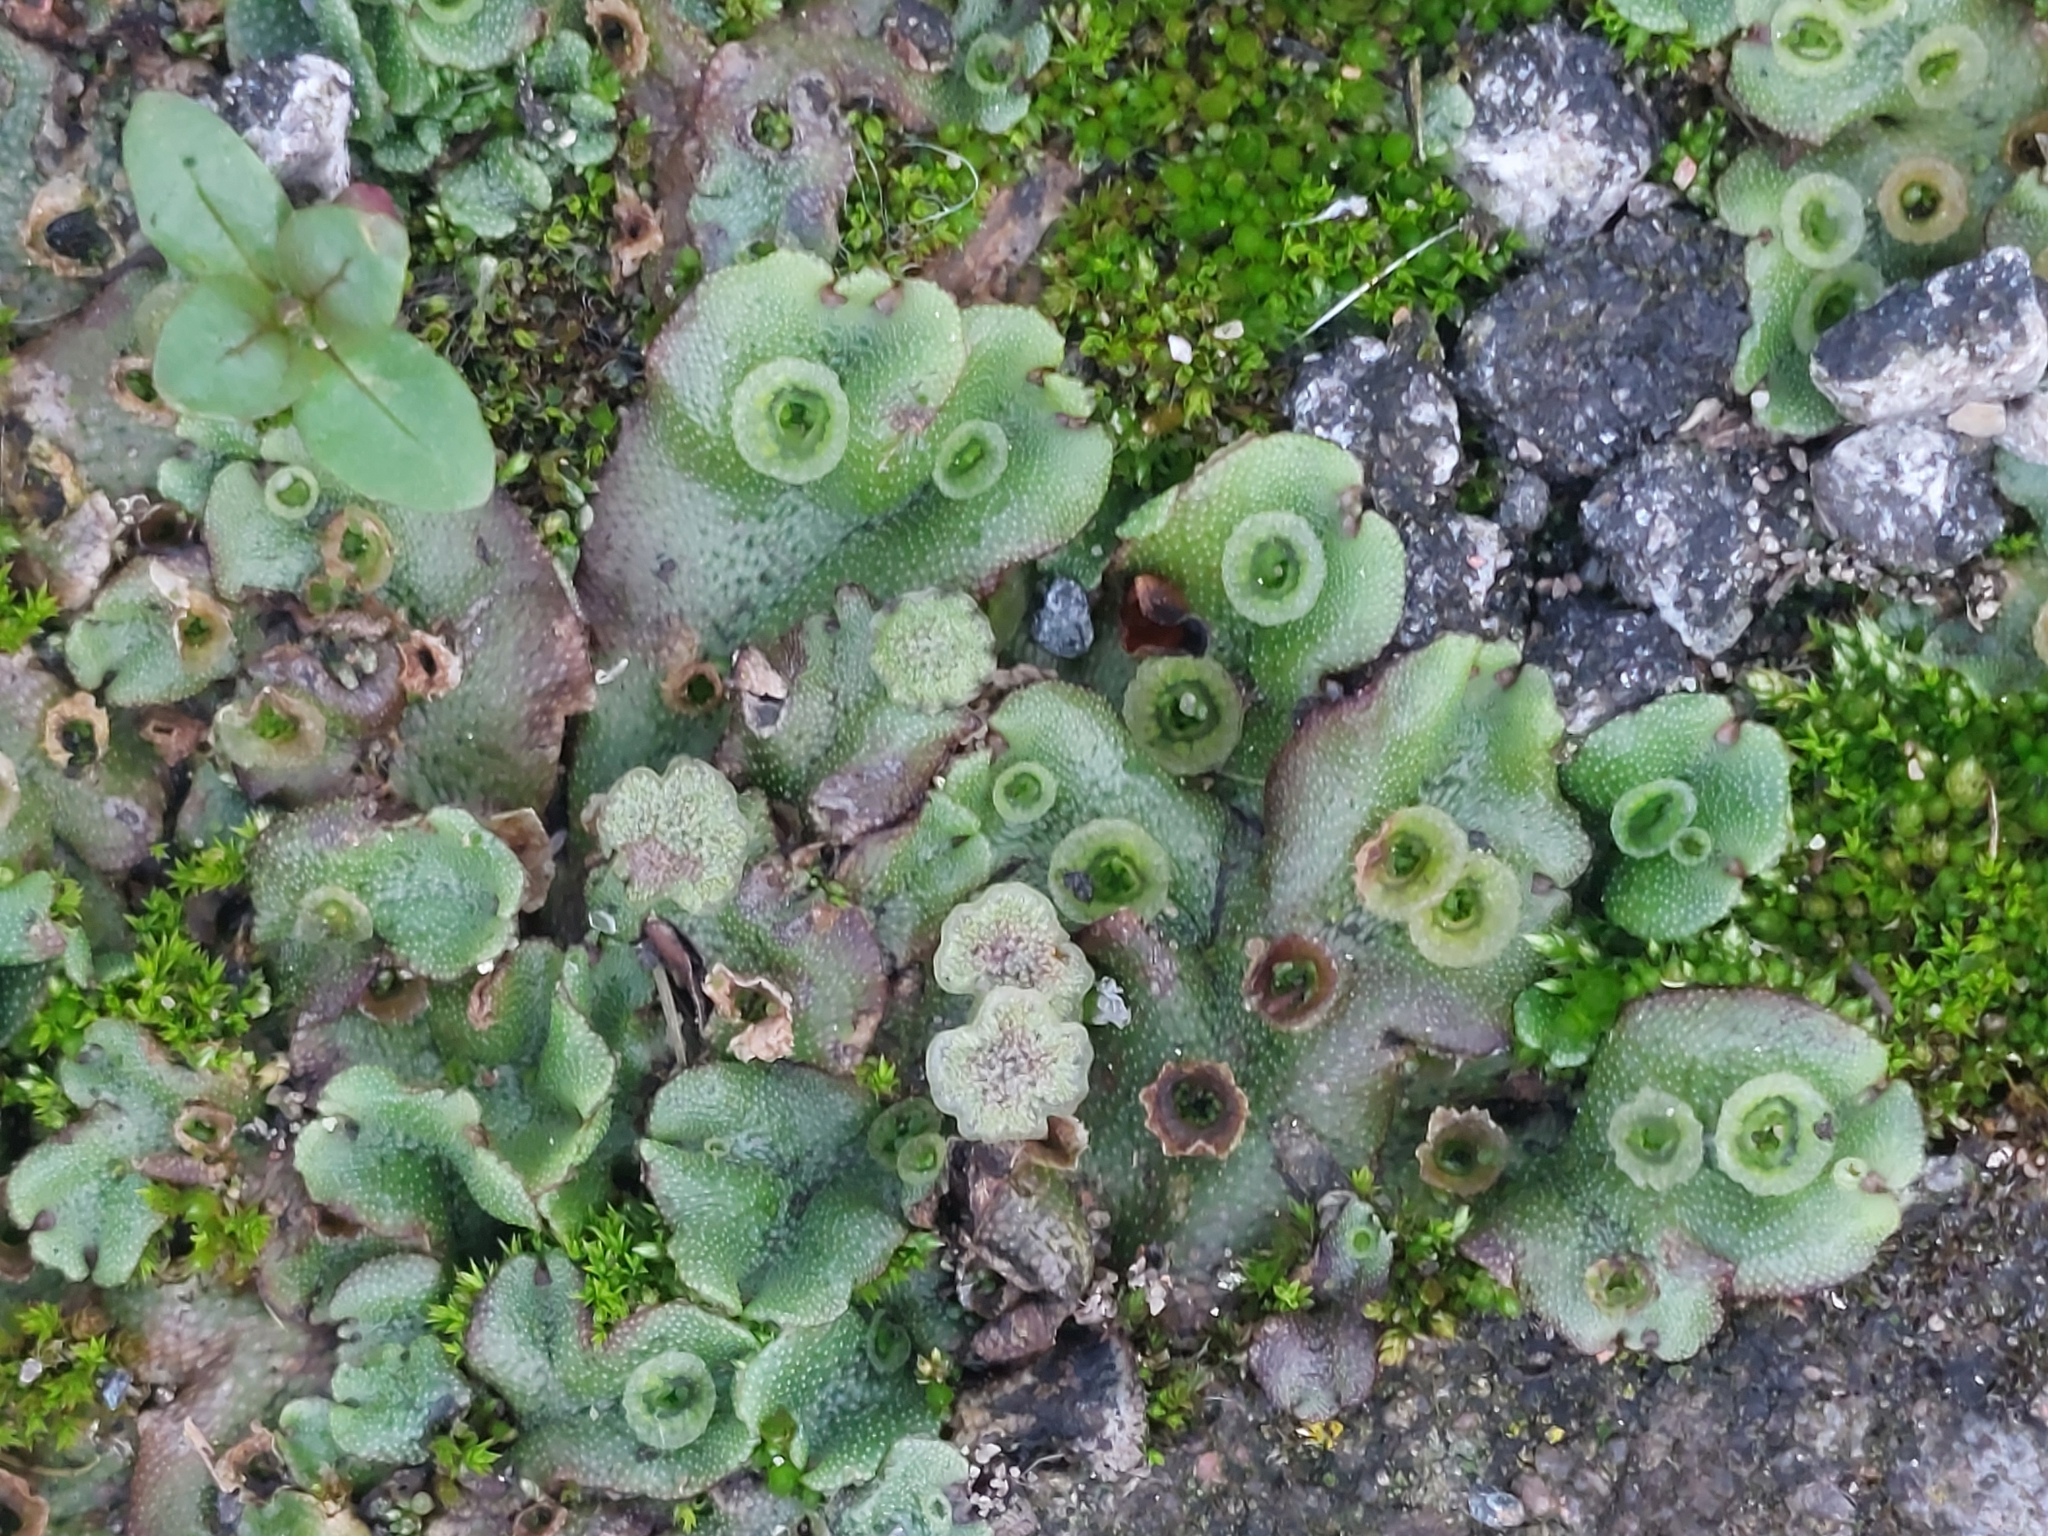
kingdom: Plantae
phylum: Marchantiophyta
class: Marchantiopsida
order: Marchantiales
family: Marchantiaceae
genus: Marchantia
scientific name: Marchantia polymorpha
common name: Common liverwort
